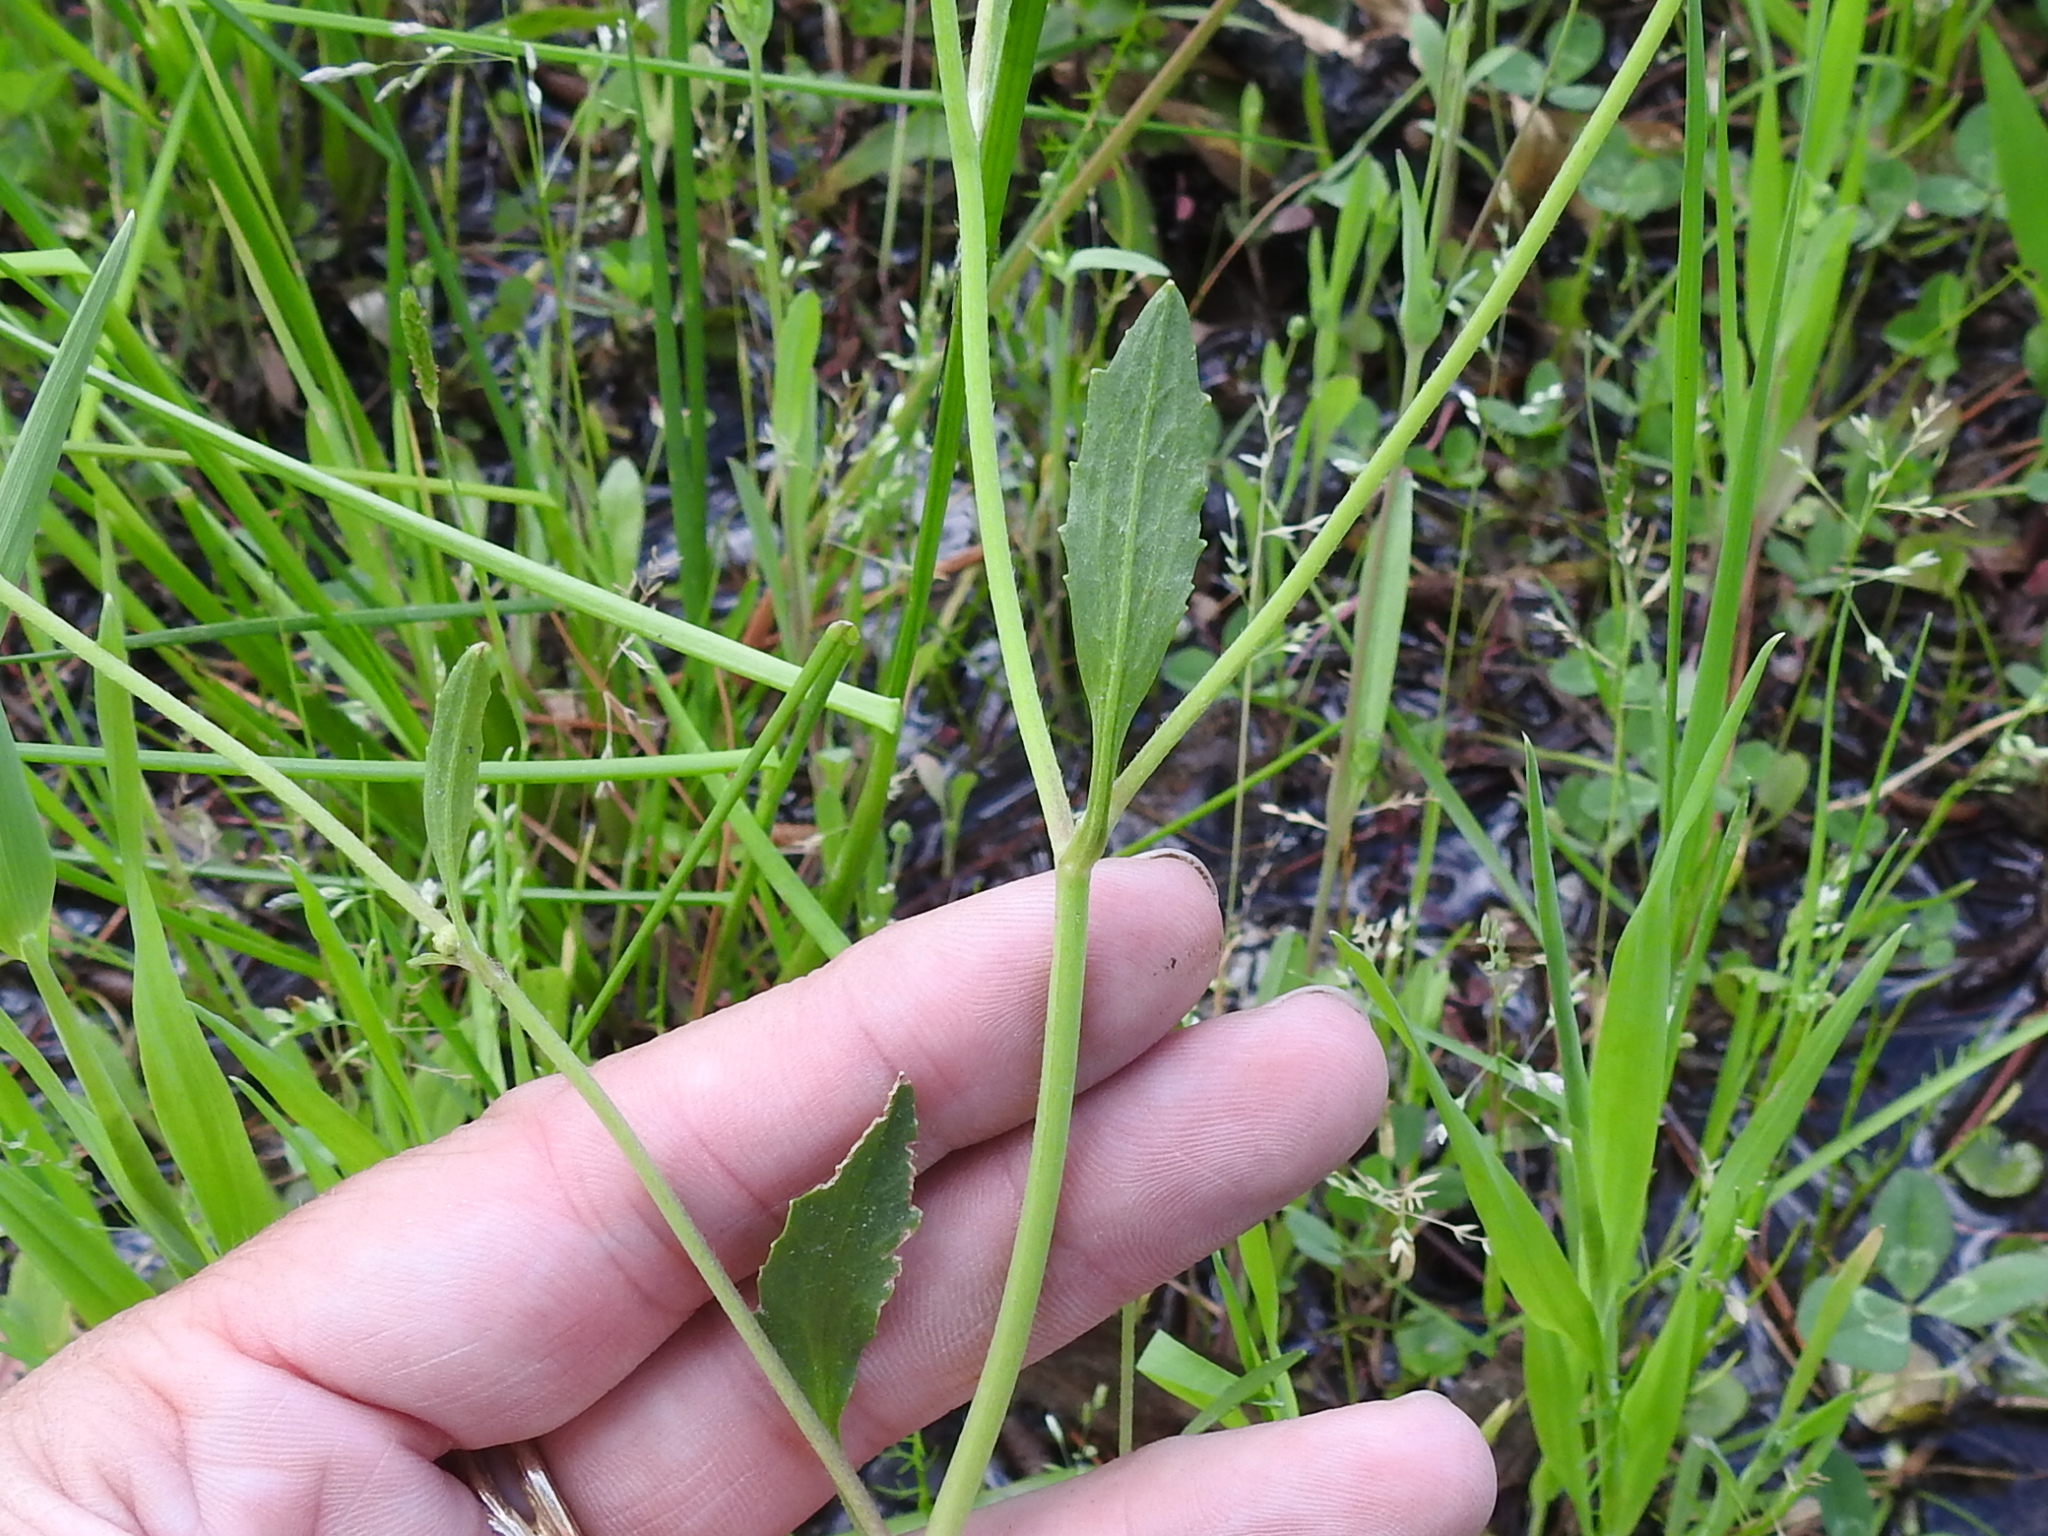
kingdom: Plantae
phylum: Tracheophyta
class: Magnoliopsida
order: Ranunculales
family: Ranunculaceae
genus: Ranunculus
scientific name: Ranunculus abortivus
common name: Early wood buttercup
